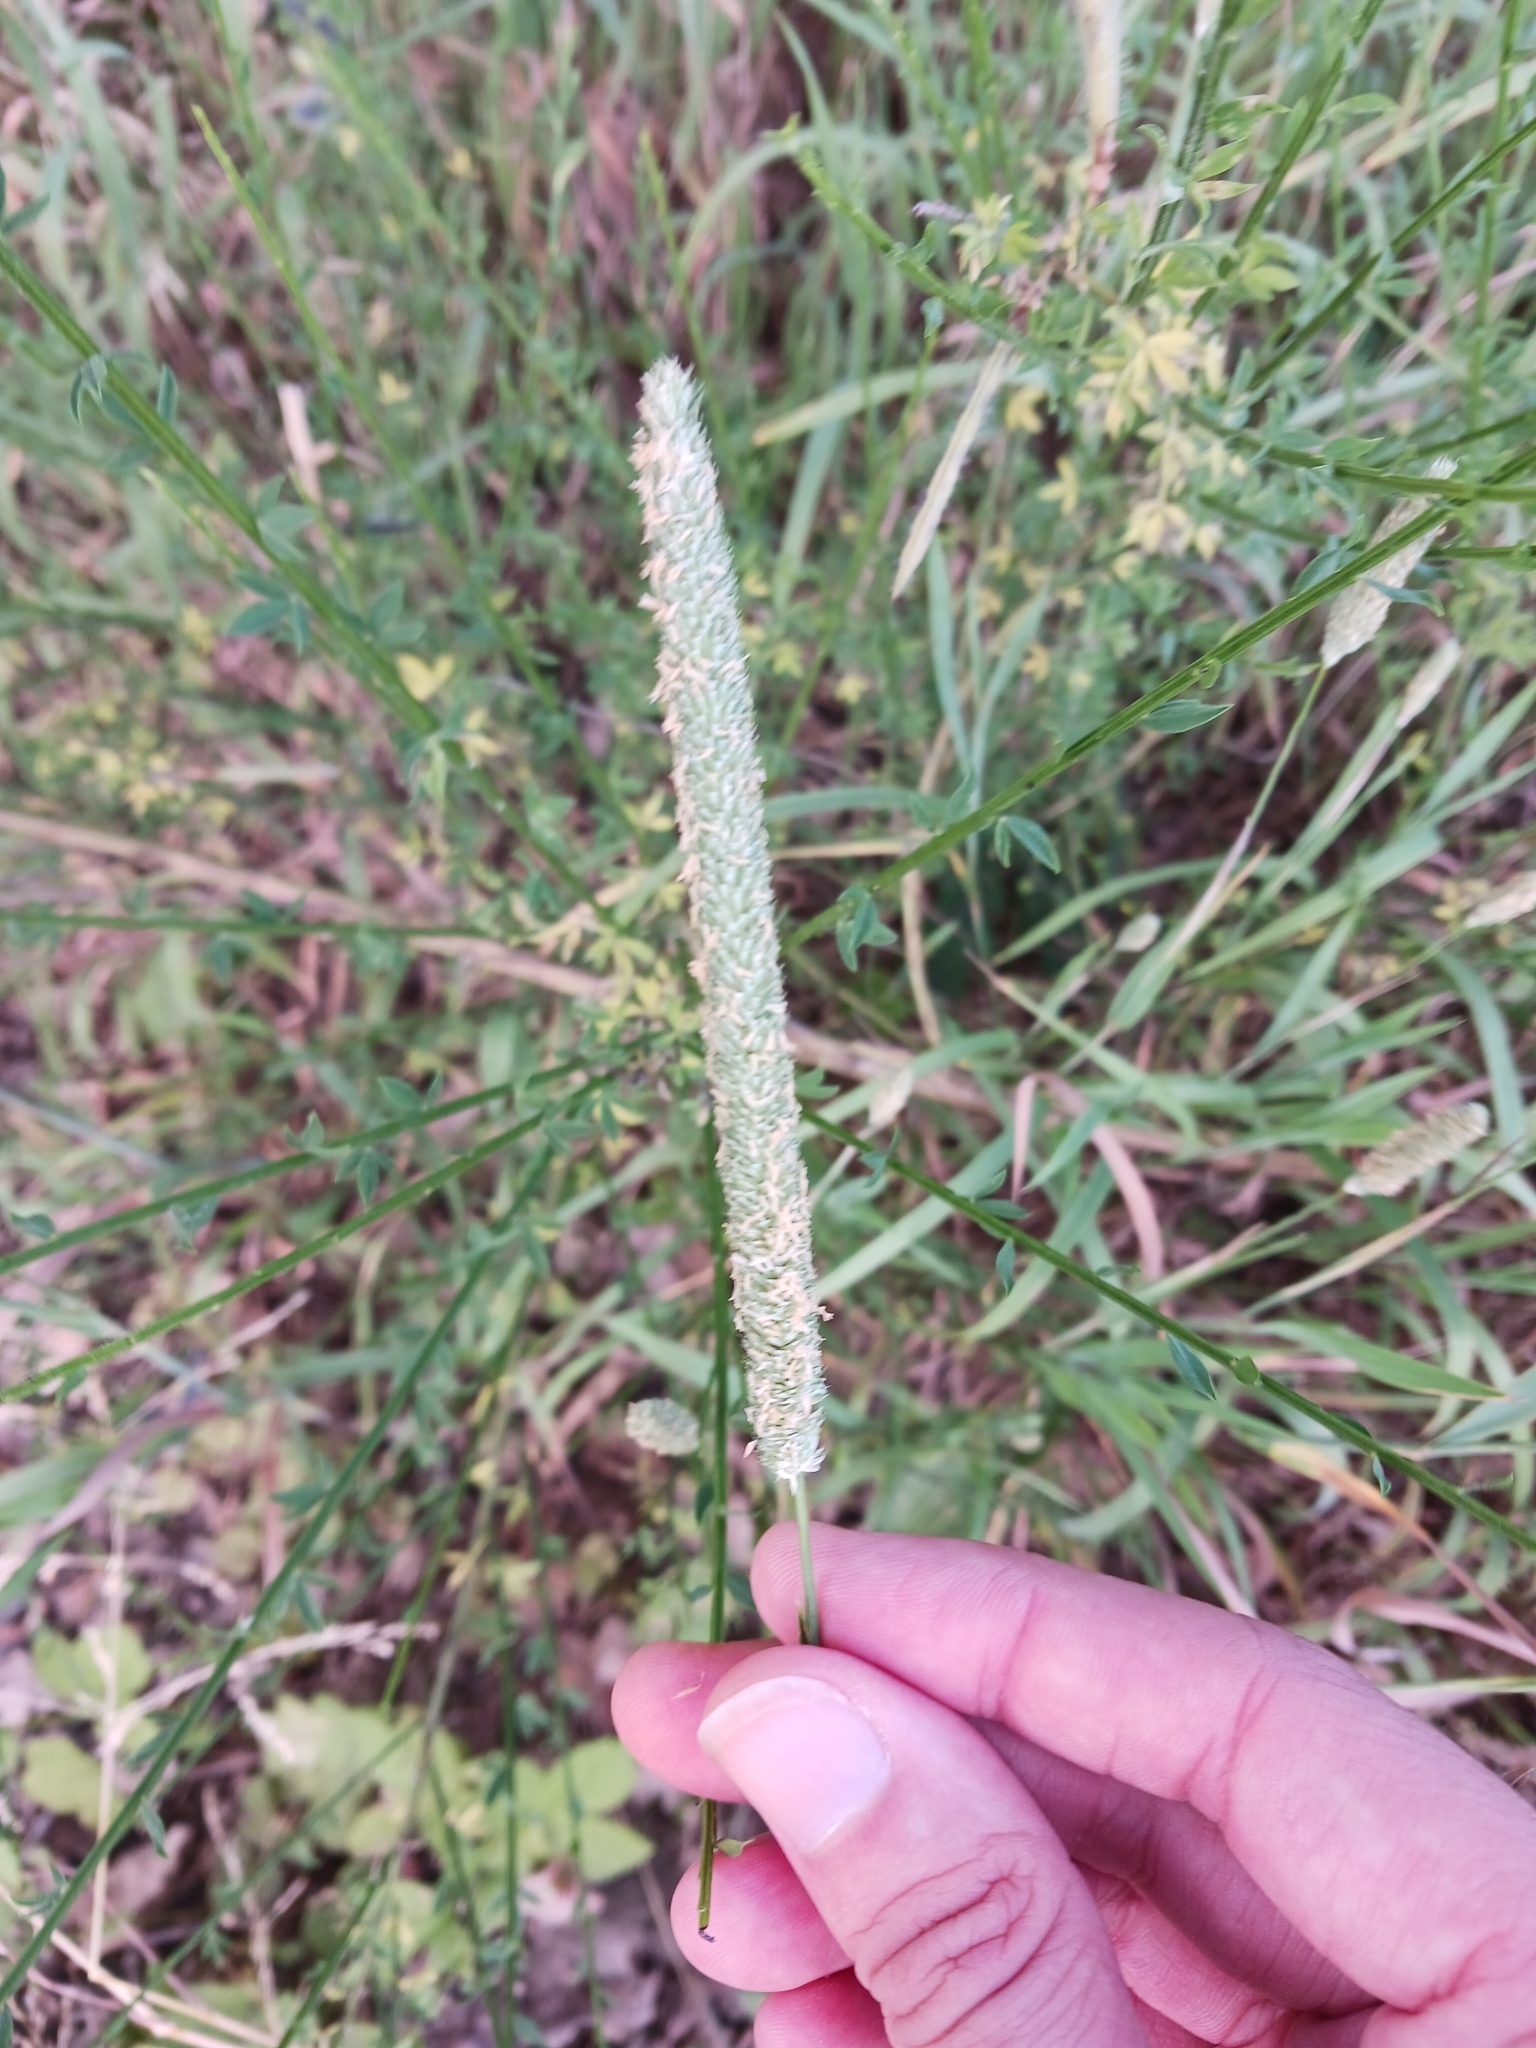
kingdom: Plantae
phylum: Tracheophyta
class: Liliopsida
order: Poales
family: Poaceae
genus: Phleum
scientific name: Phleum pratense
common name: Timothy grass
